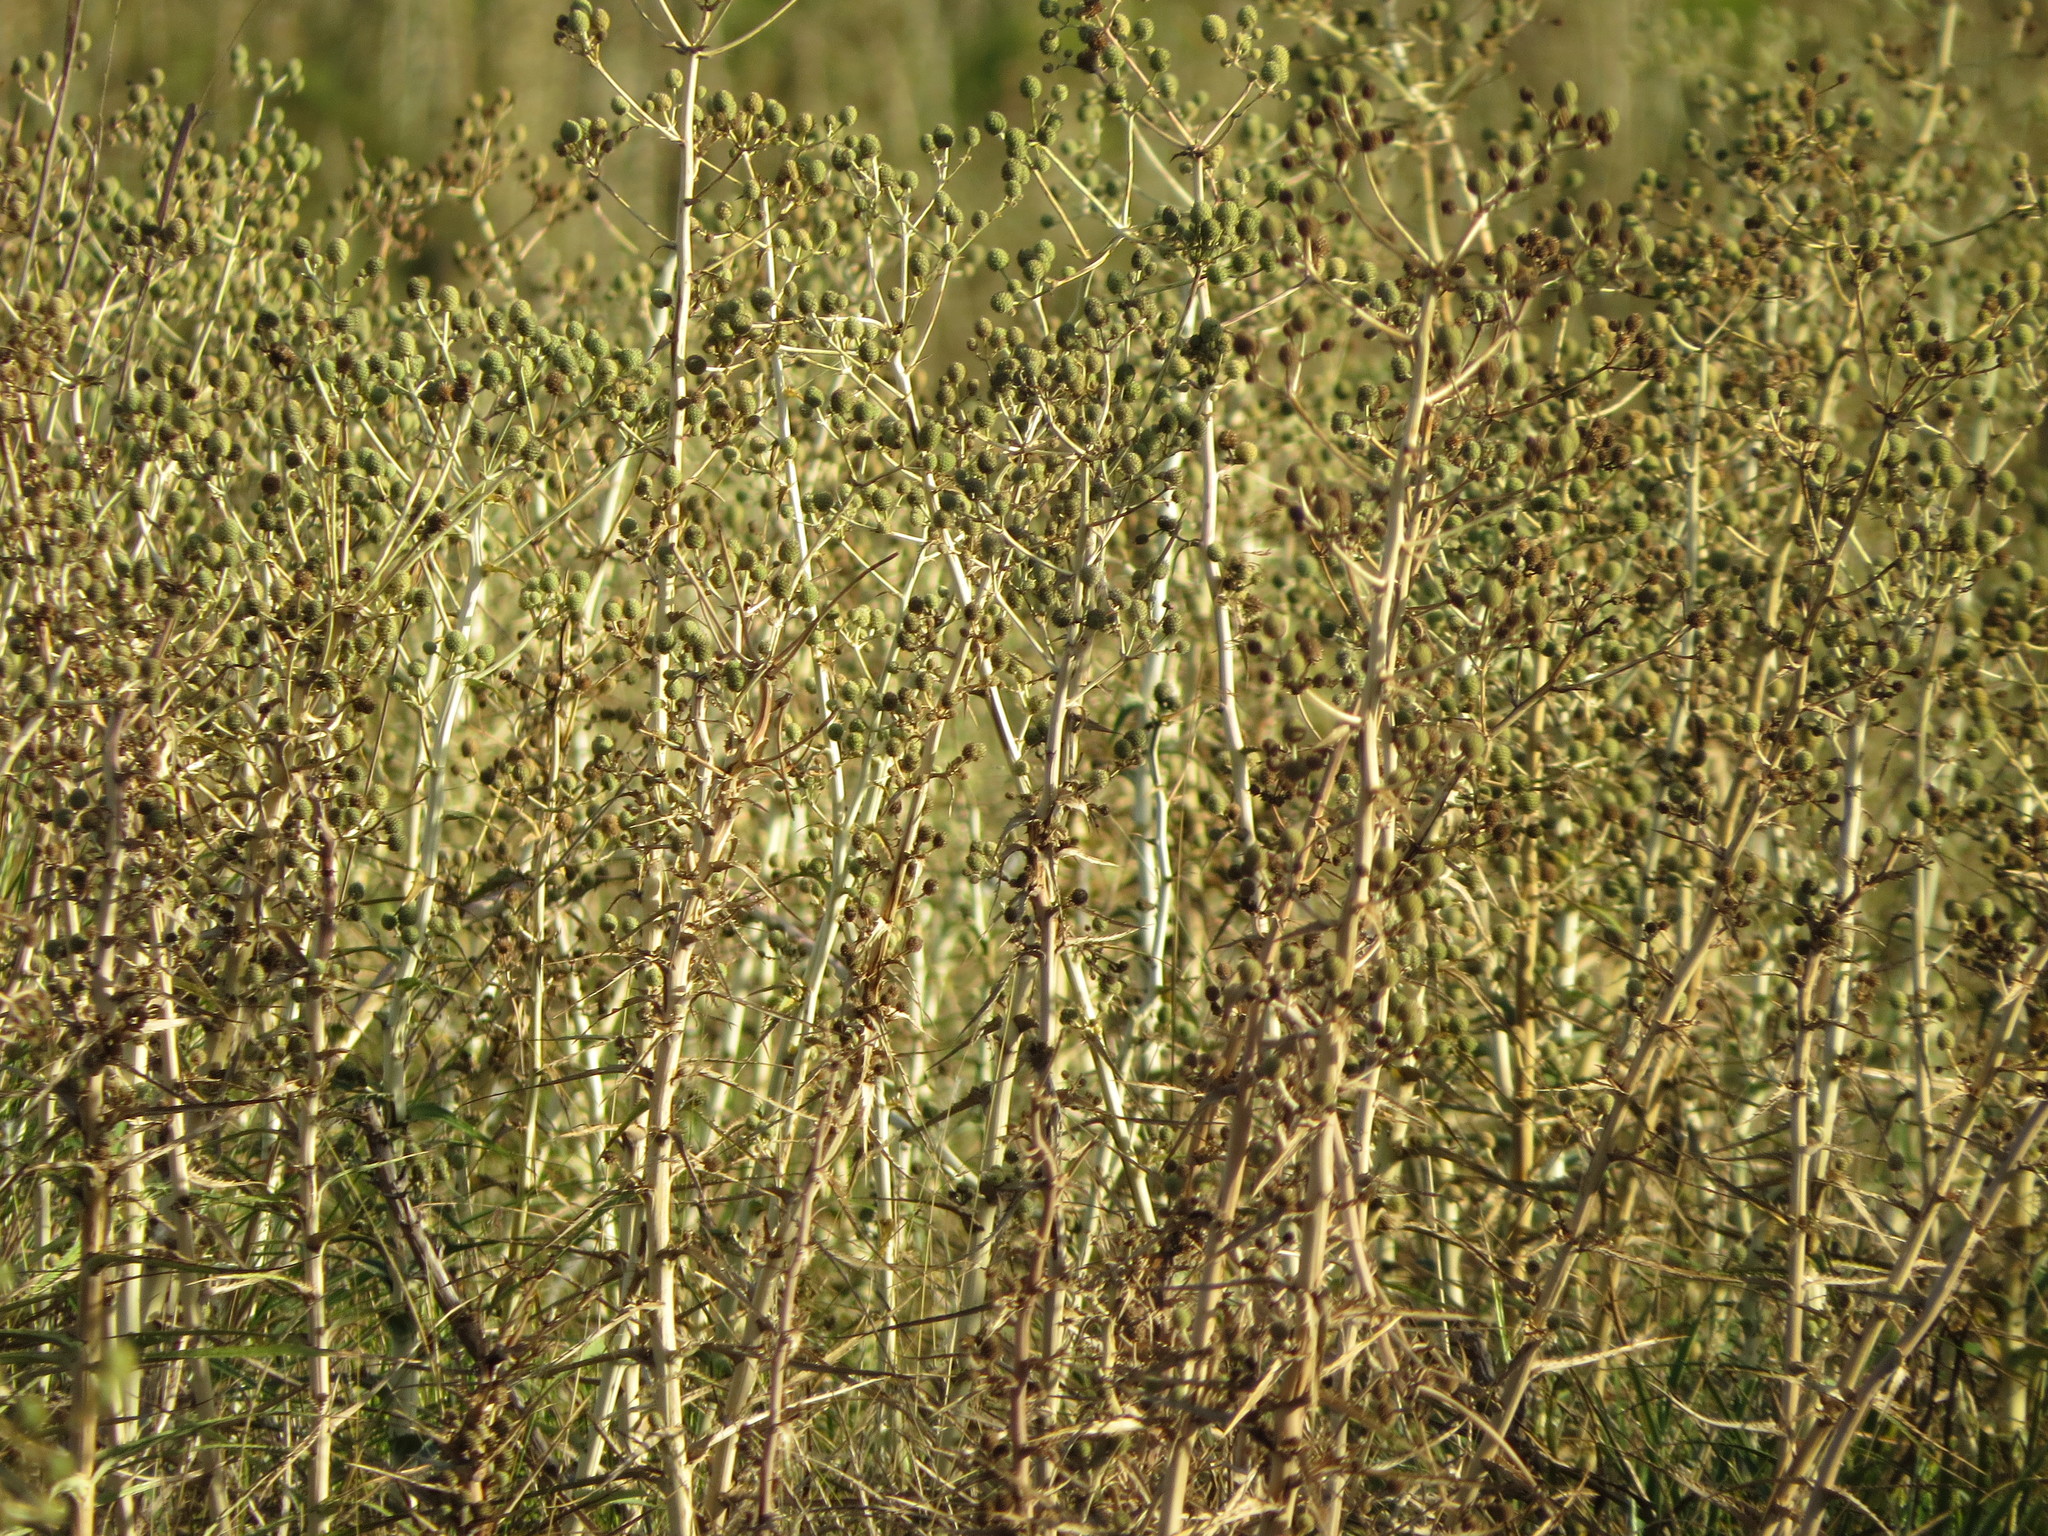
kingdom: Plantae
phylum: Tracheophyta
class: Magnoliopsida
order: Apiales
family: Apiaceae
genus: Eryngium
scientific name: Eryngium horridum
